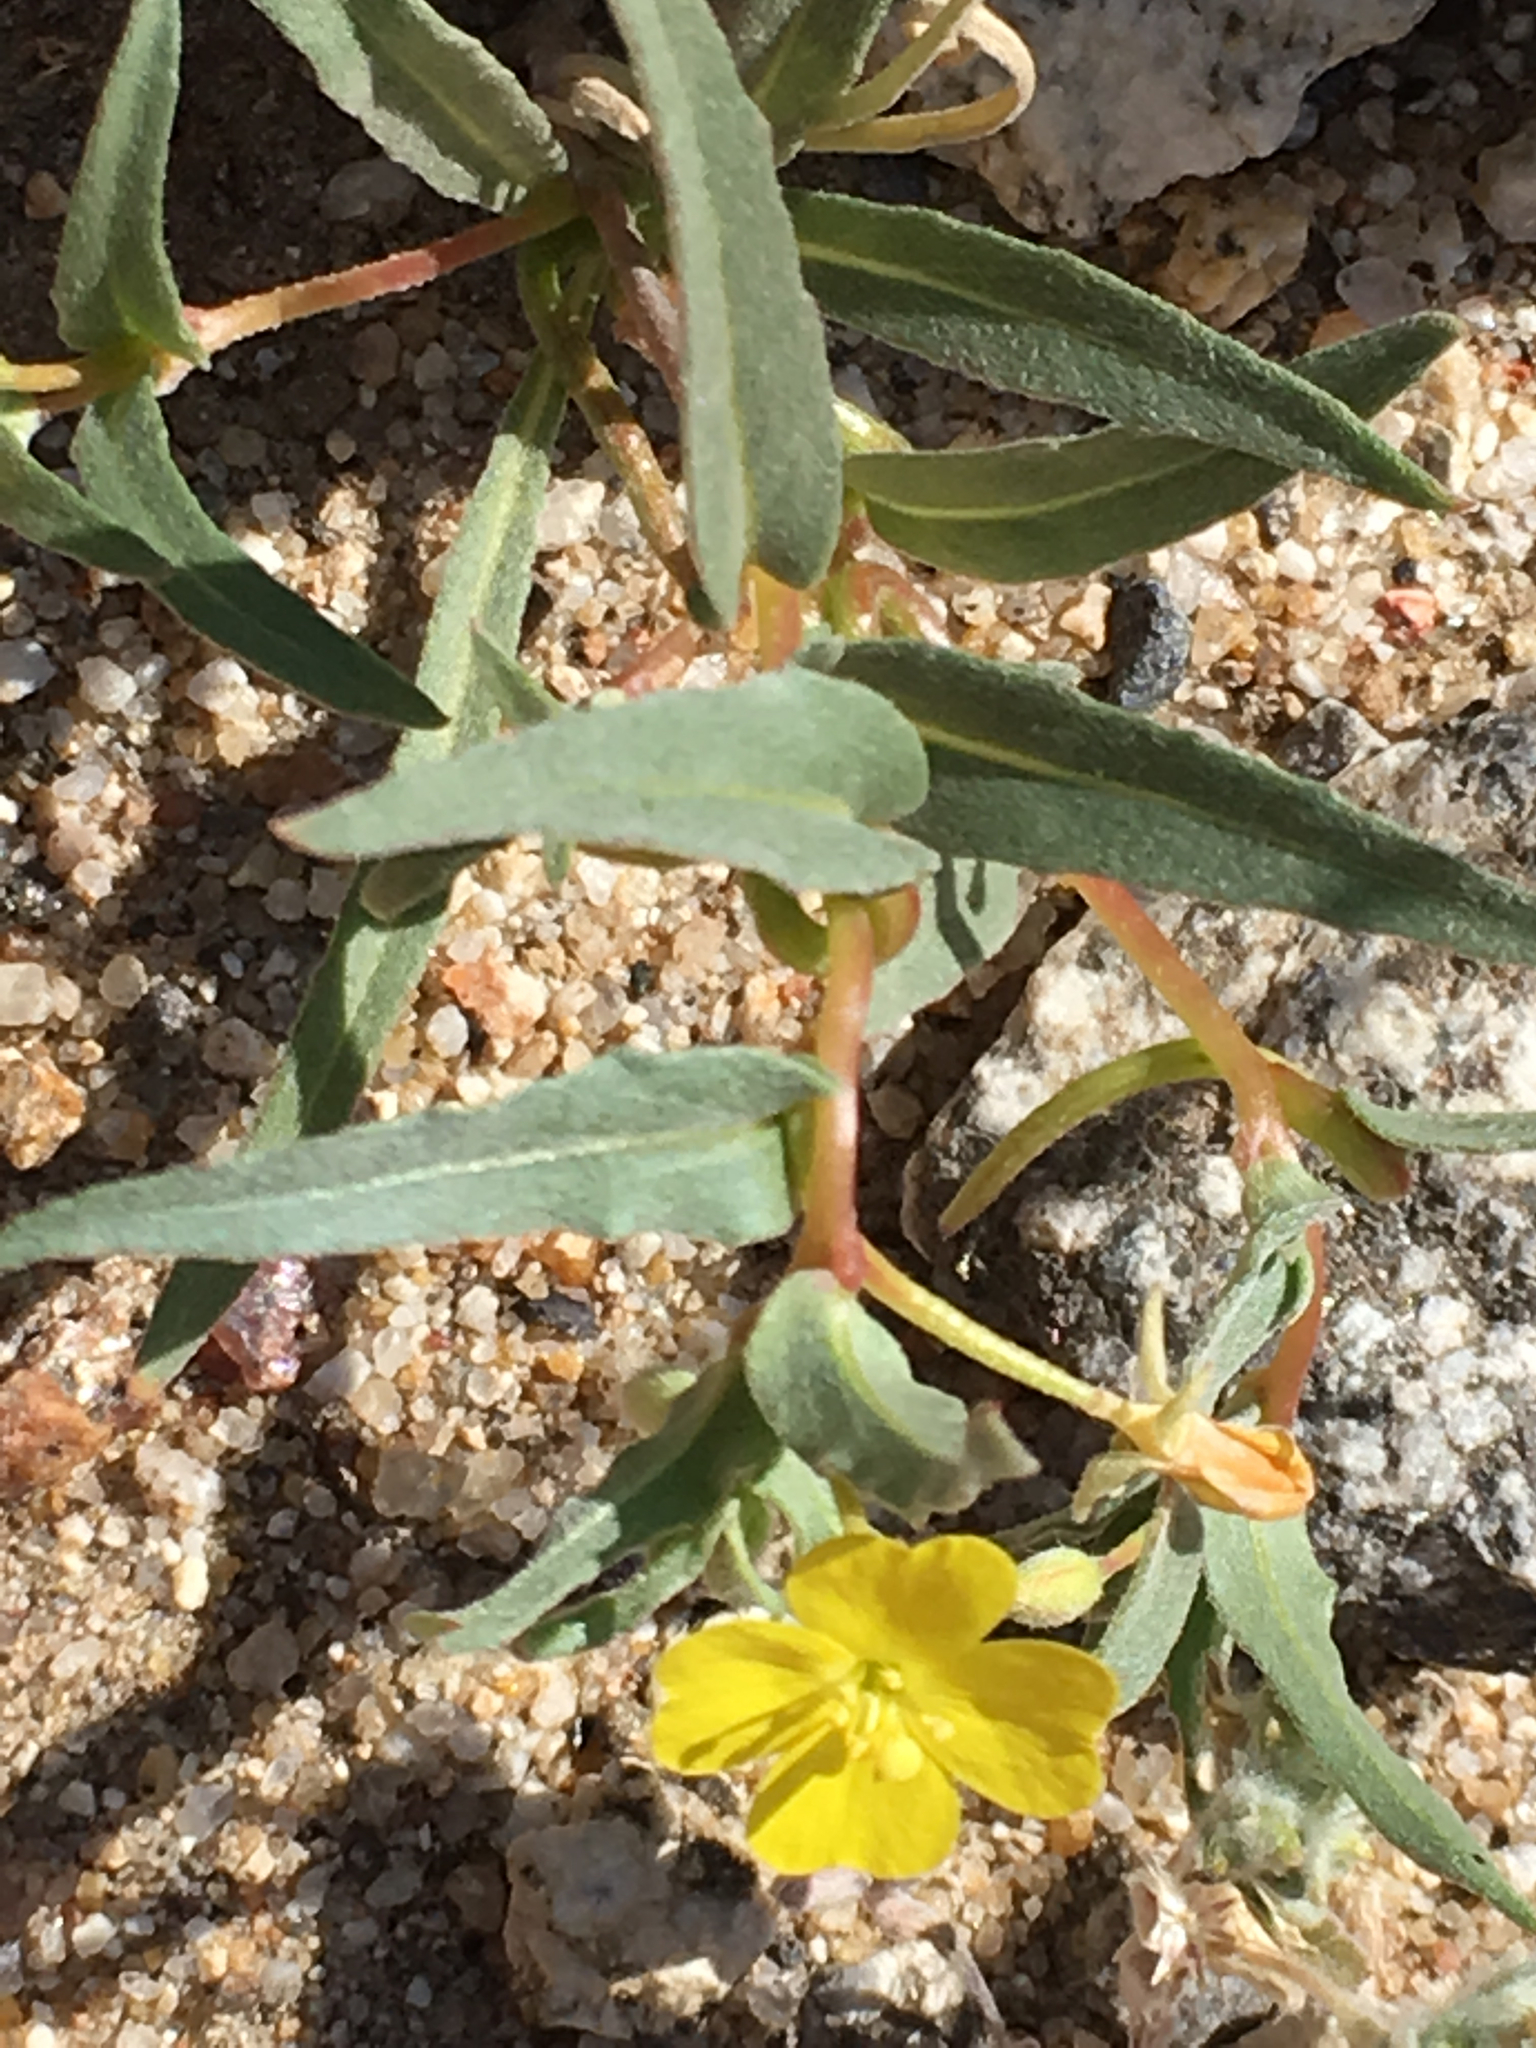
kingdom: Plantae
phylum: Tracheophyta
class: Magnoliopsida
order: Myrtales
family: Onagraceae
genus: Camissoniopsis
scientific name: Camissoniopsis pallida
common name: Paleyellow suncup
